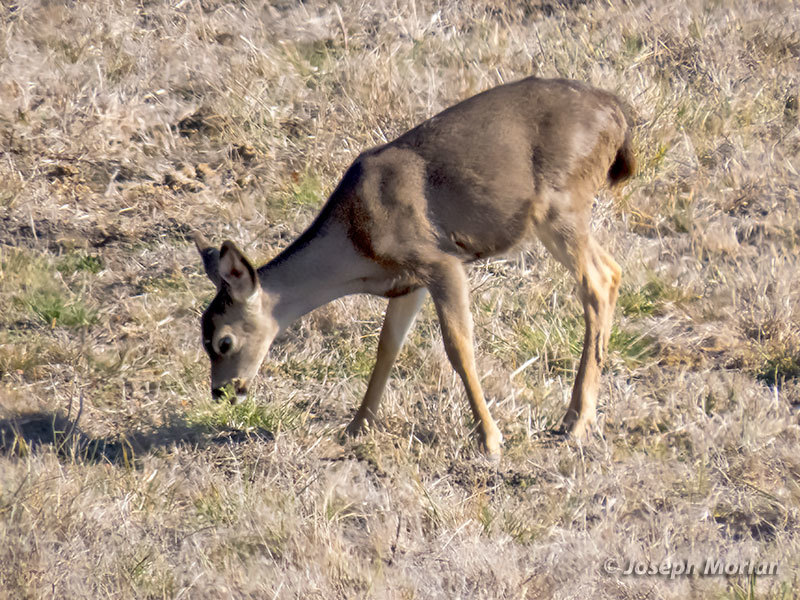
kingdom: Animalia
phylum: Chordata
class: Mammalia
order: Artiodactyla
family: Cervidae
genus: Odocoileus
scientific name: Odocoileus hemionus
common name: Mule deer
